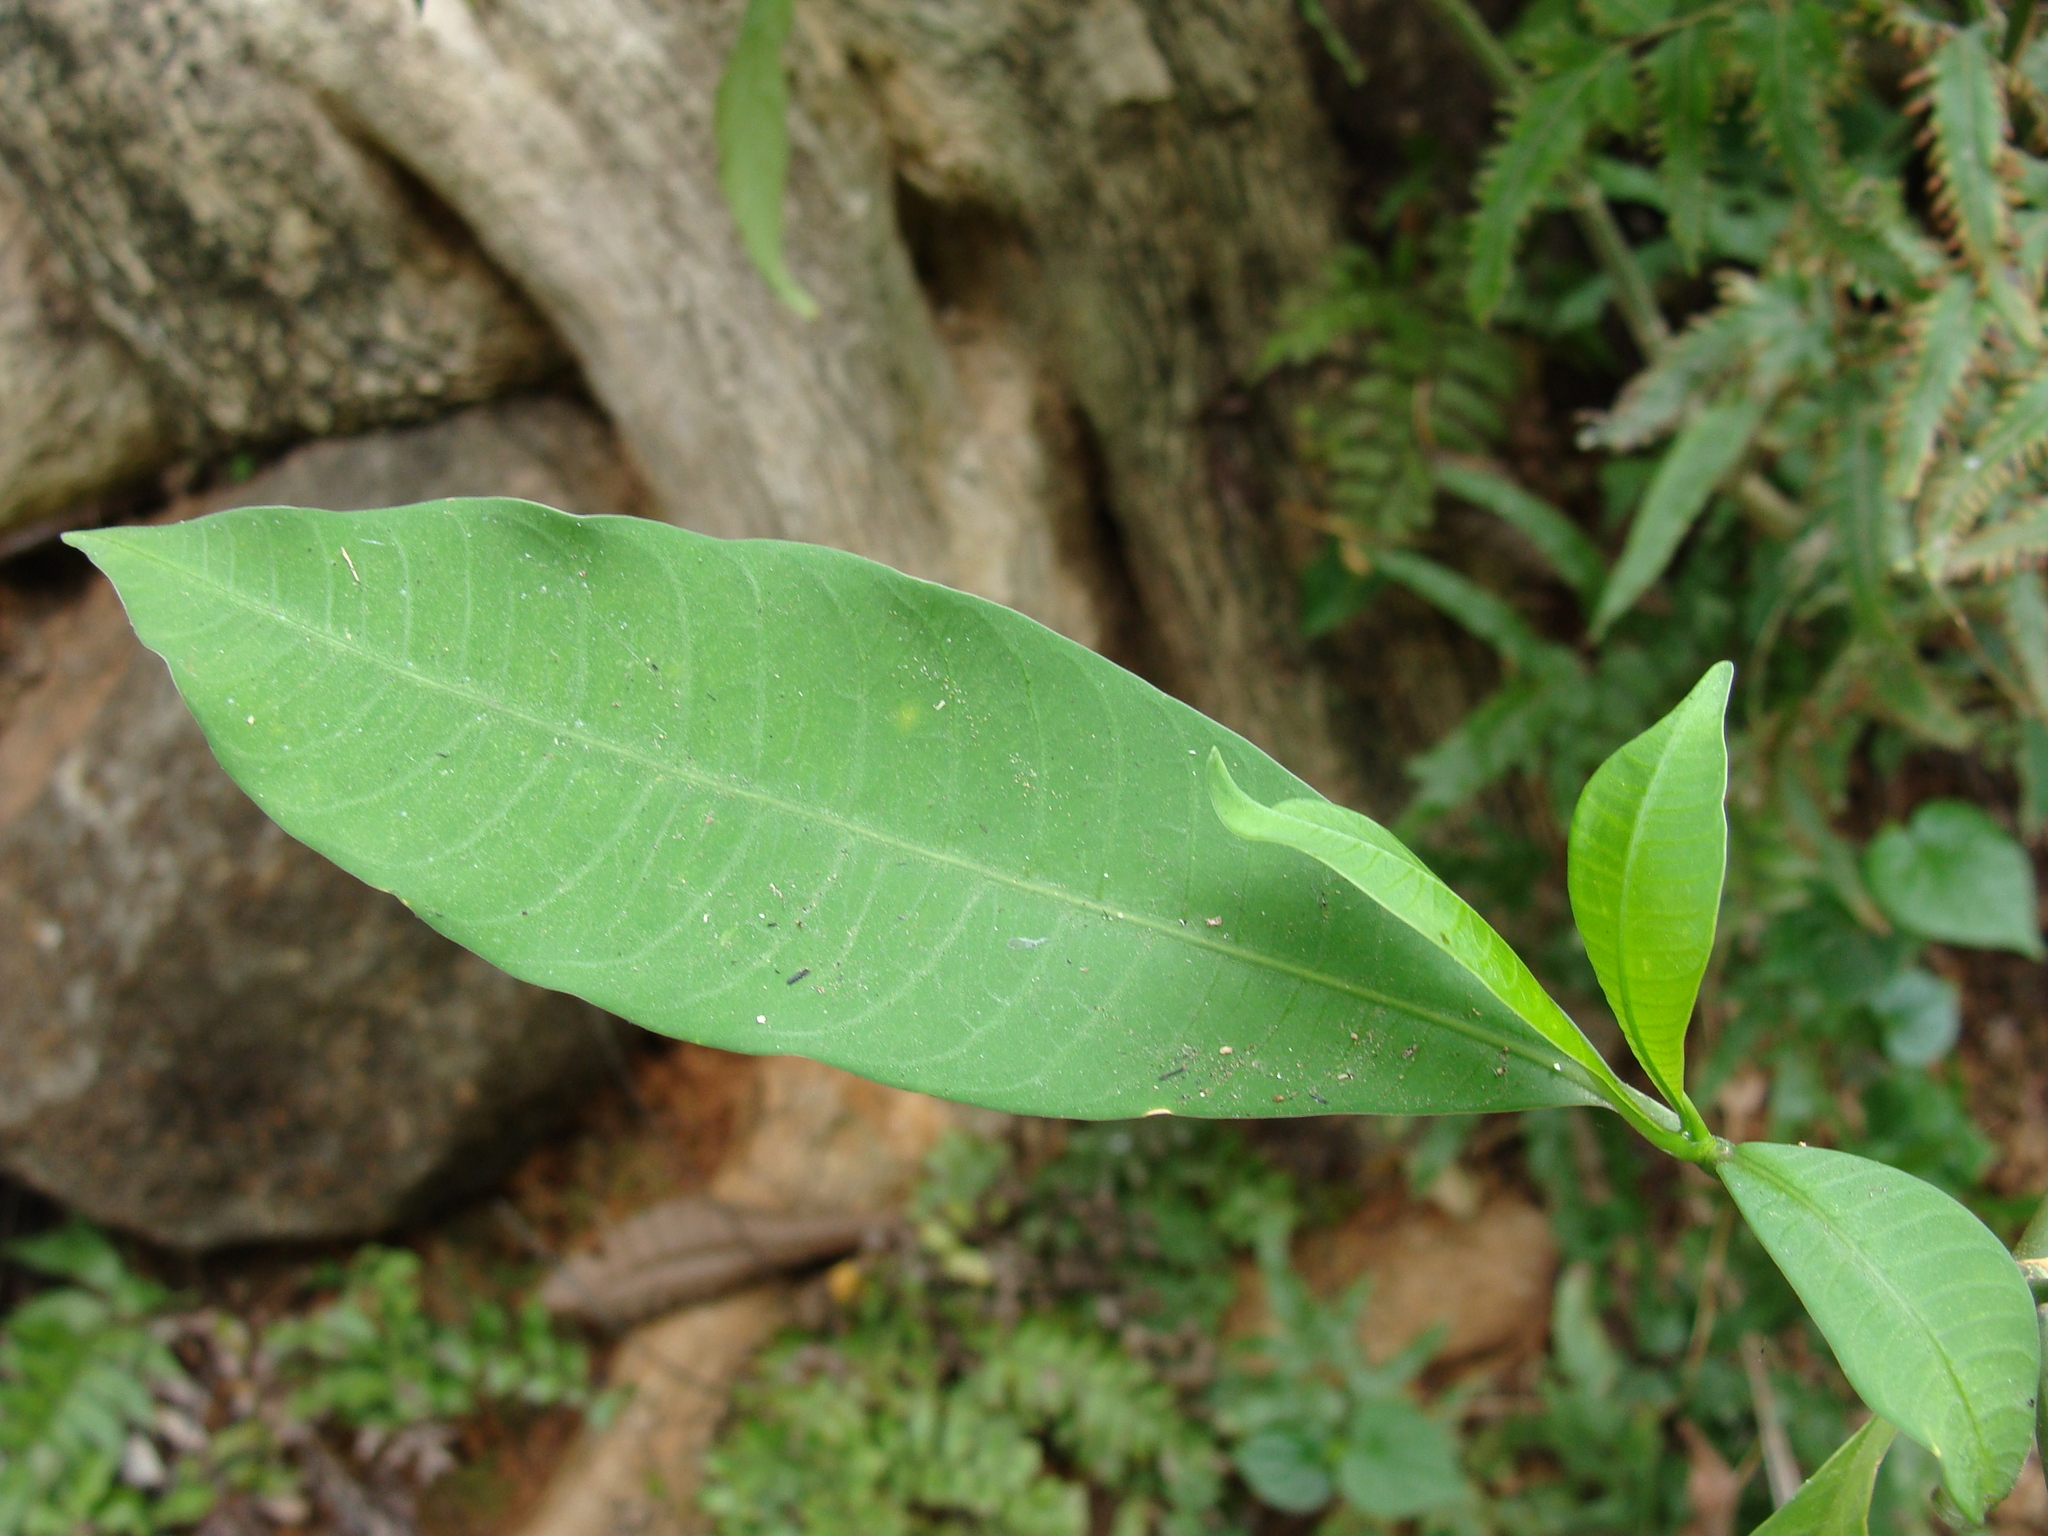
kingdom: Plantae
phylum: Tracheophyta
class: Magnoliopsida
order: Gentianales
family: Apocynaceae
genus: Tabernaemontana
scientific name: Tabernaemontana amygdalifolia
